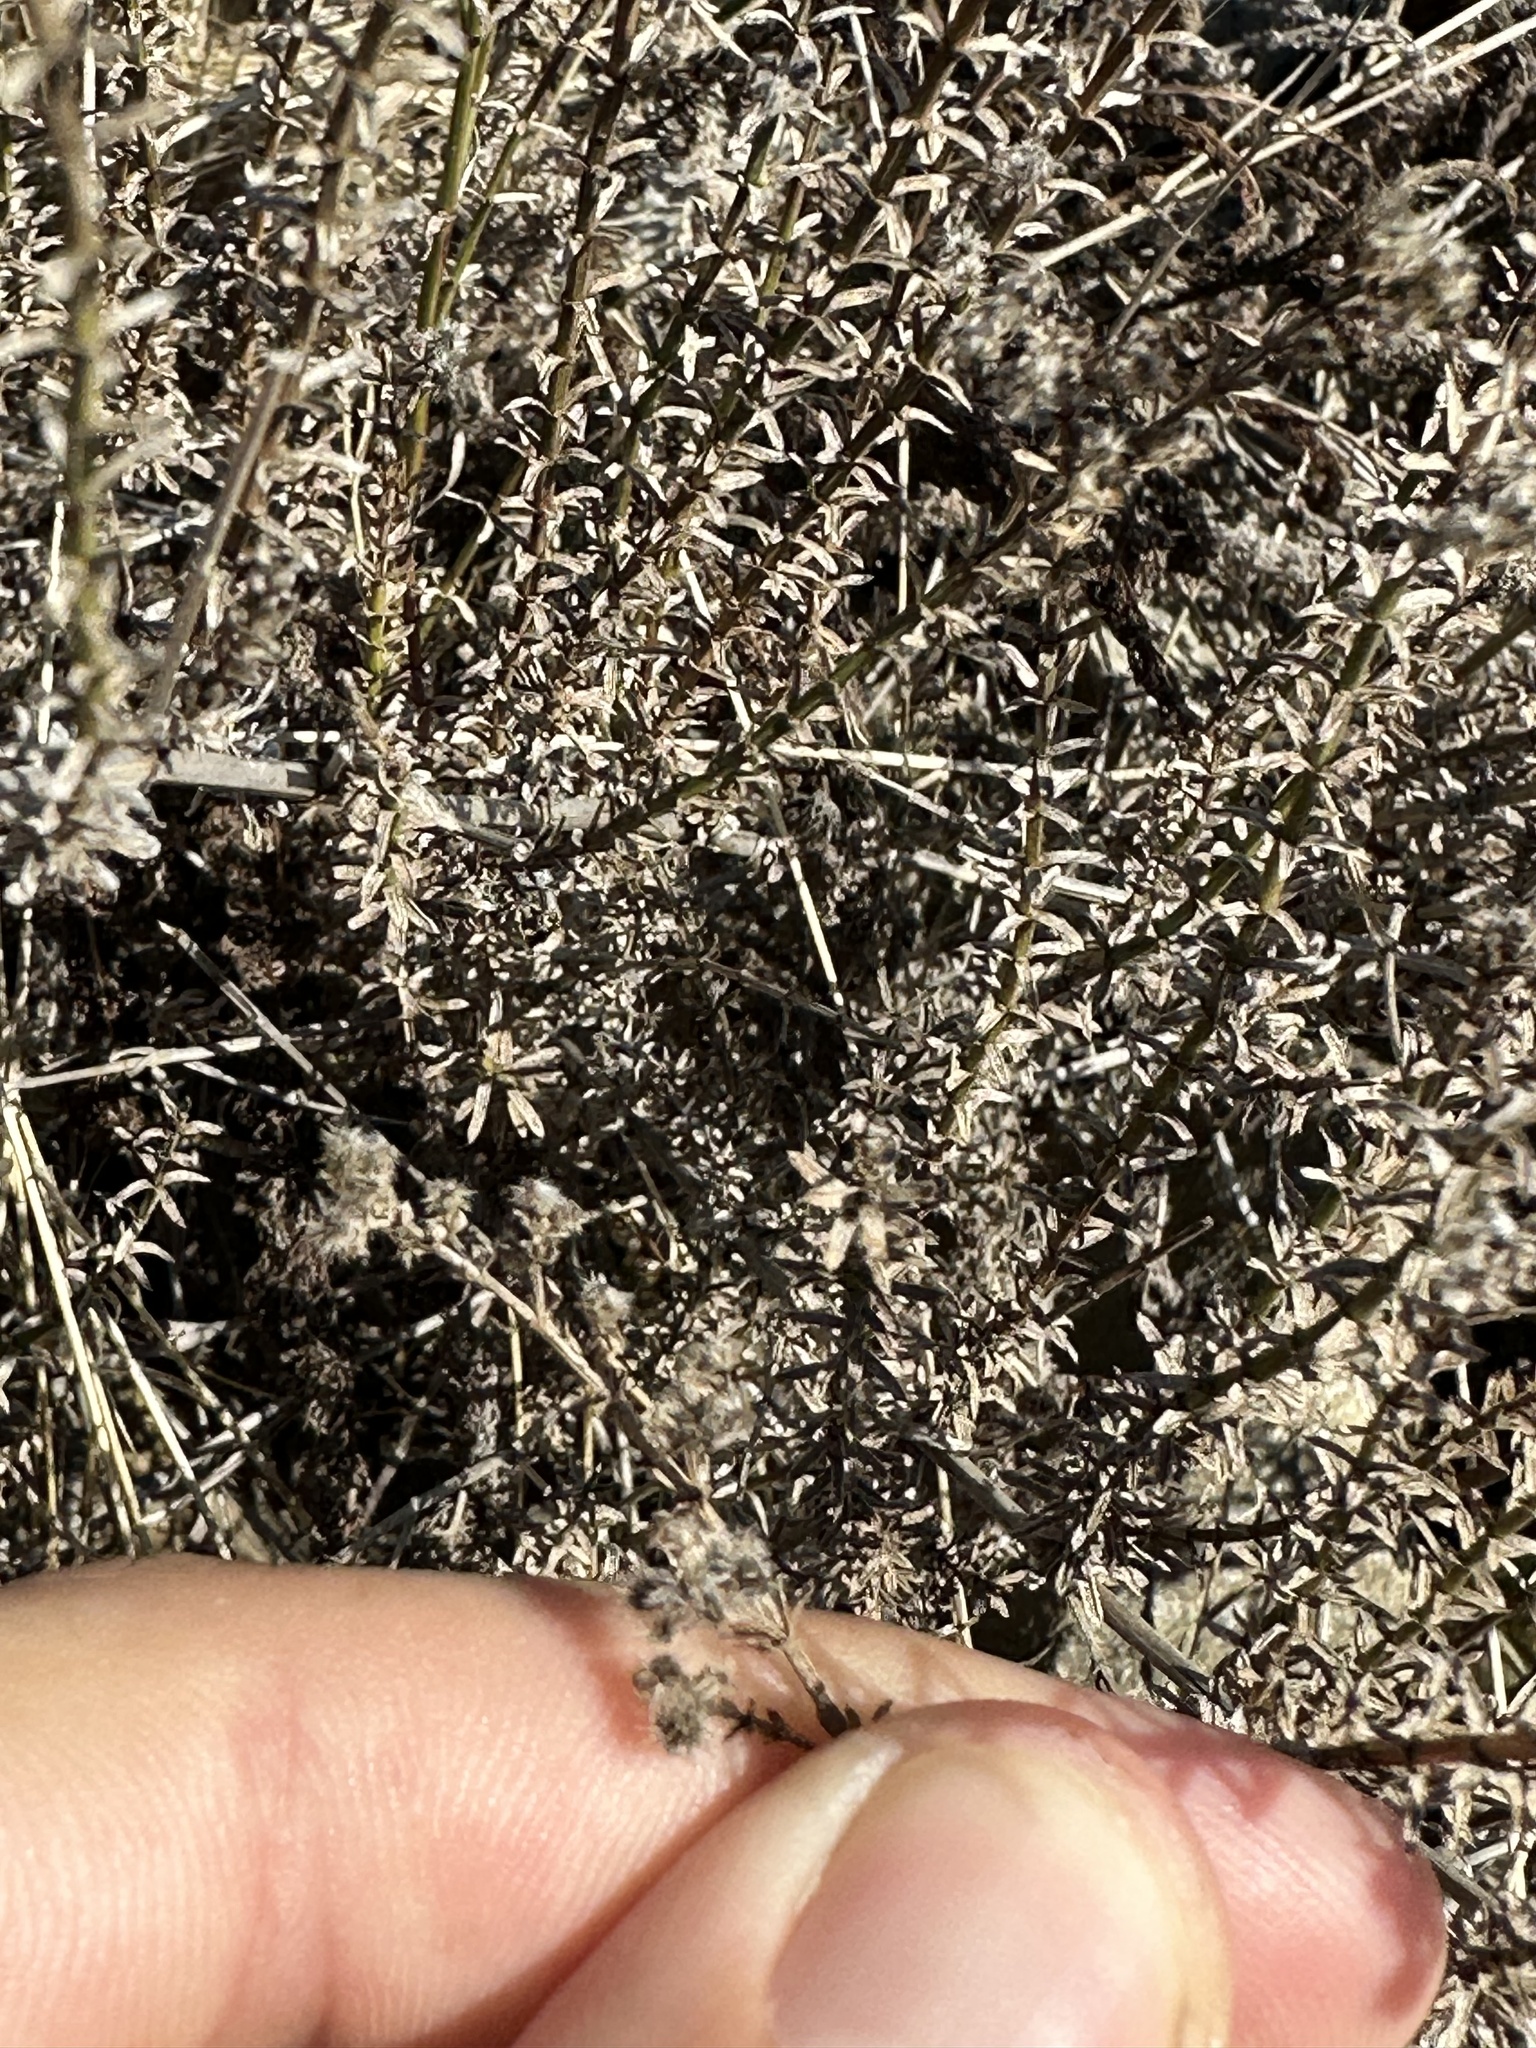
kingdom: Plantae
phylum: Tracheophyta
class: Magnoliopsida
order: Gentianales
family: Rubiaceae
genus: Galium
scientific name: Galium angustifolium
